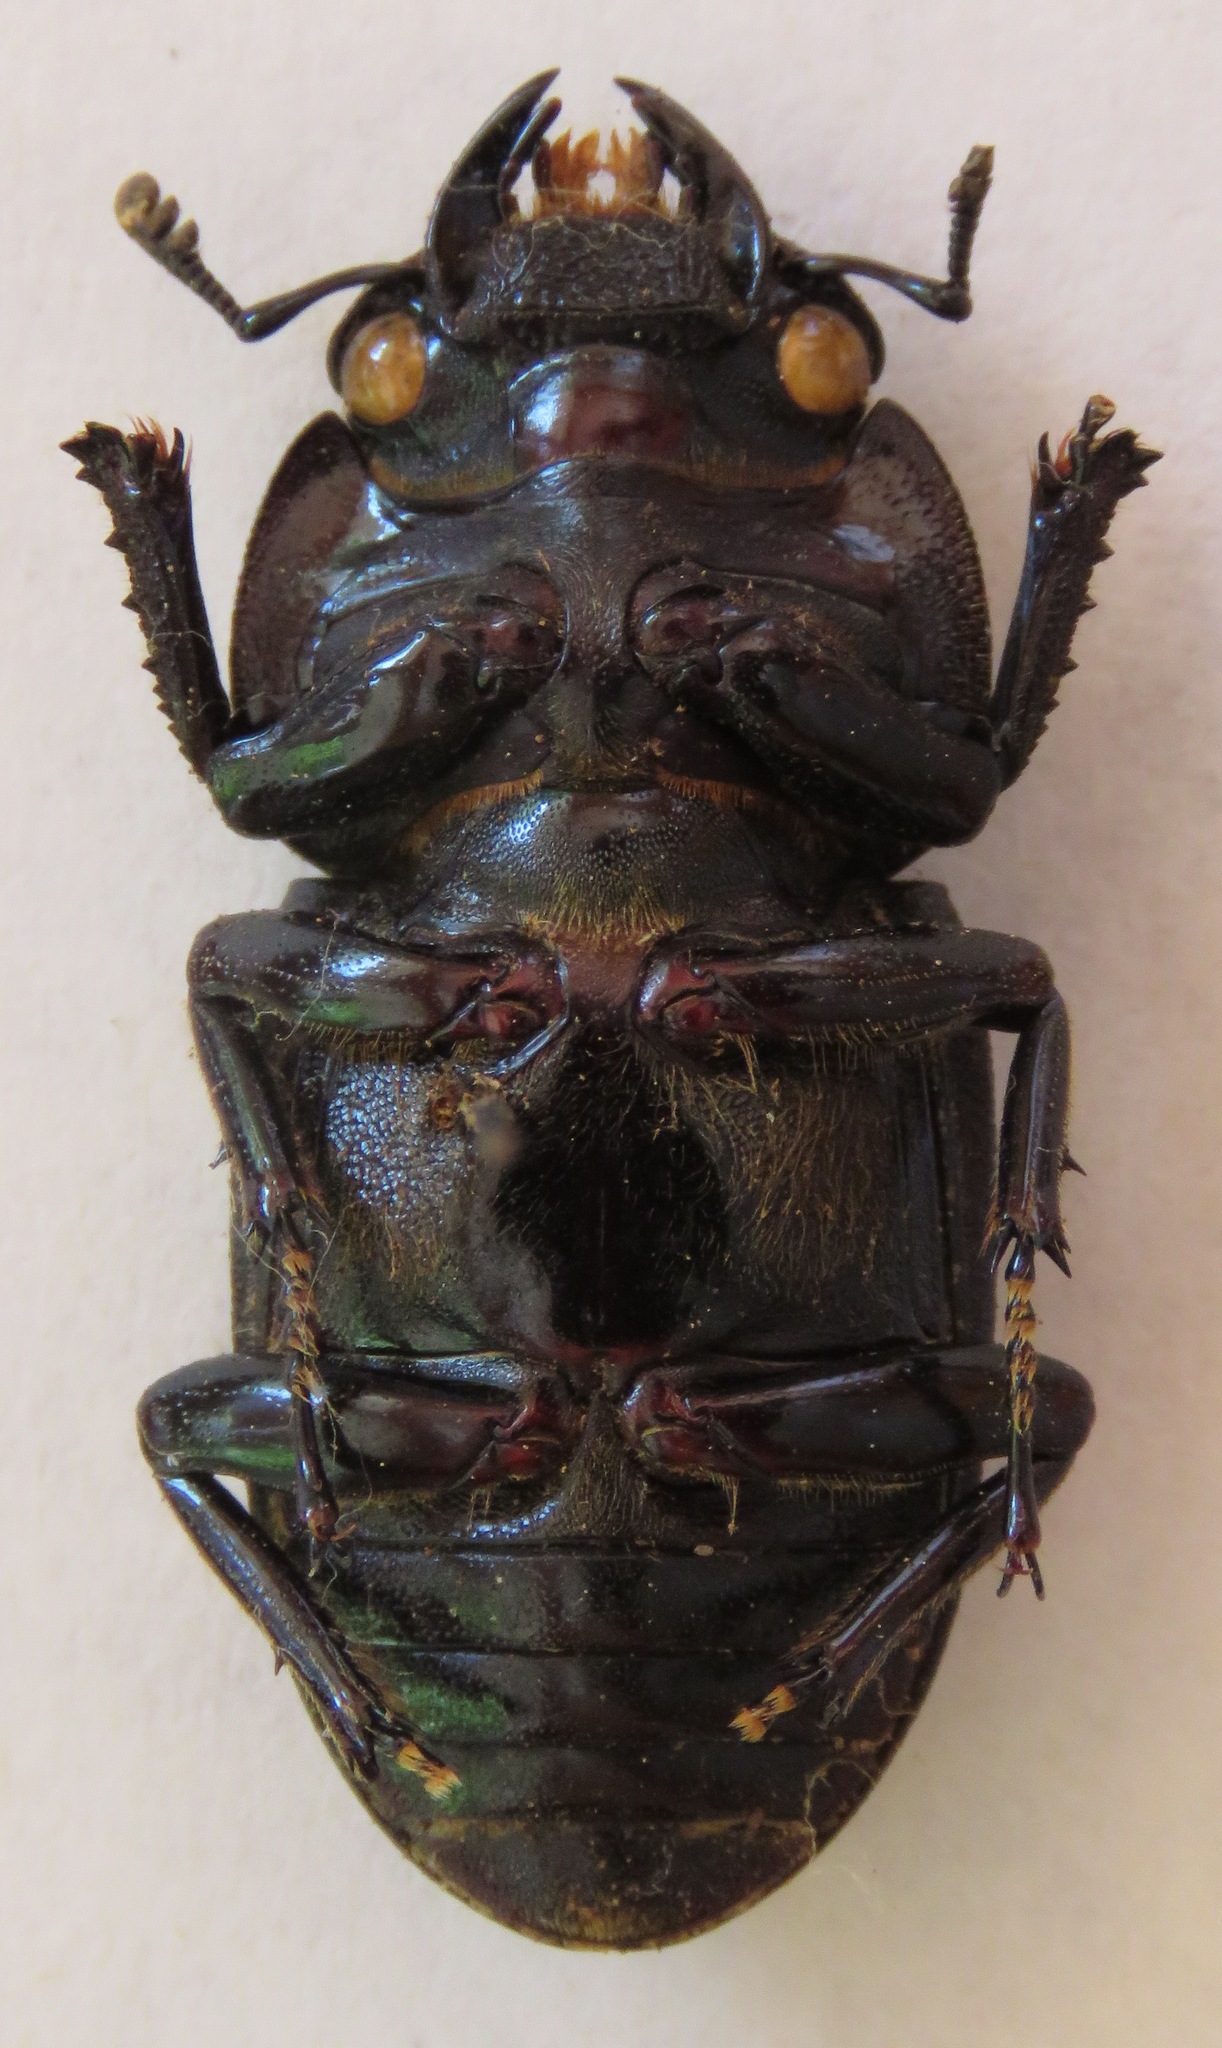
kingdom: Animalia
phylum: Arthropoda
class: Insecta
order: Coleoptera
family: Lucanidae
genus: Dorcus
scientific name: Dorcus curvidens
